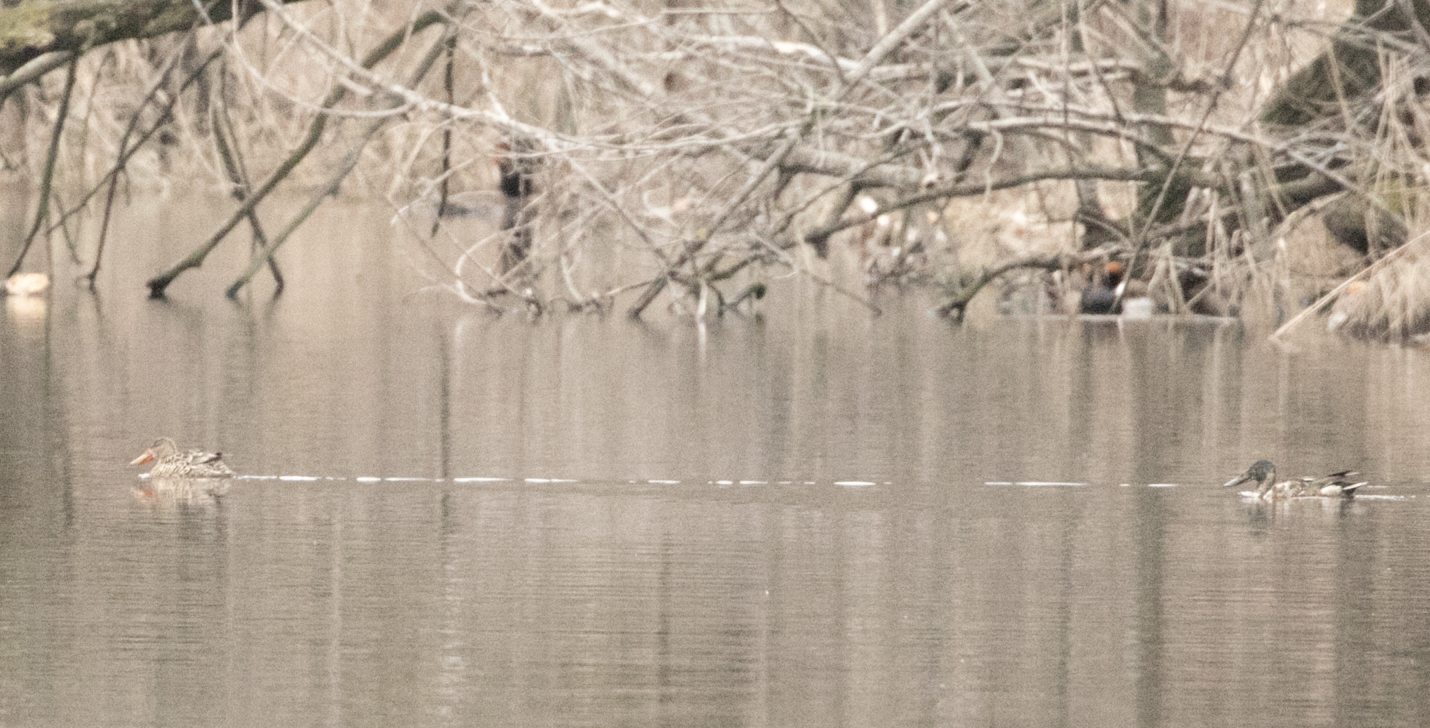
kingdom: Animalia
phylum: Chordata
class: Aves
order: Anseriformes
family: Anatidae
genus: Spatula
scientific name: Spatula clypeata
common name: Northern shoveler
